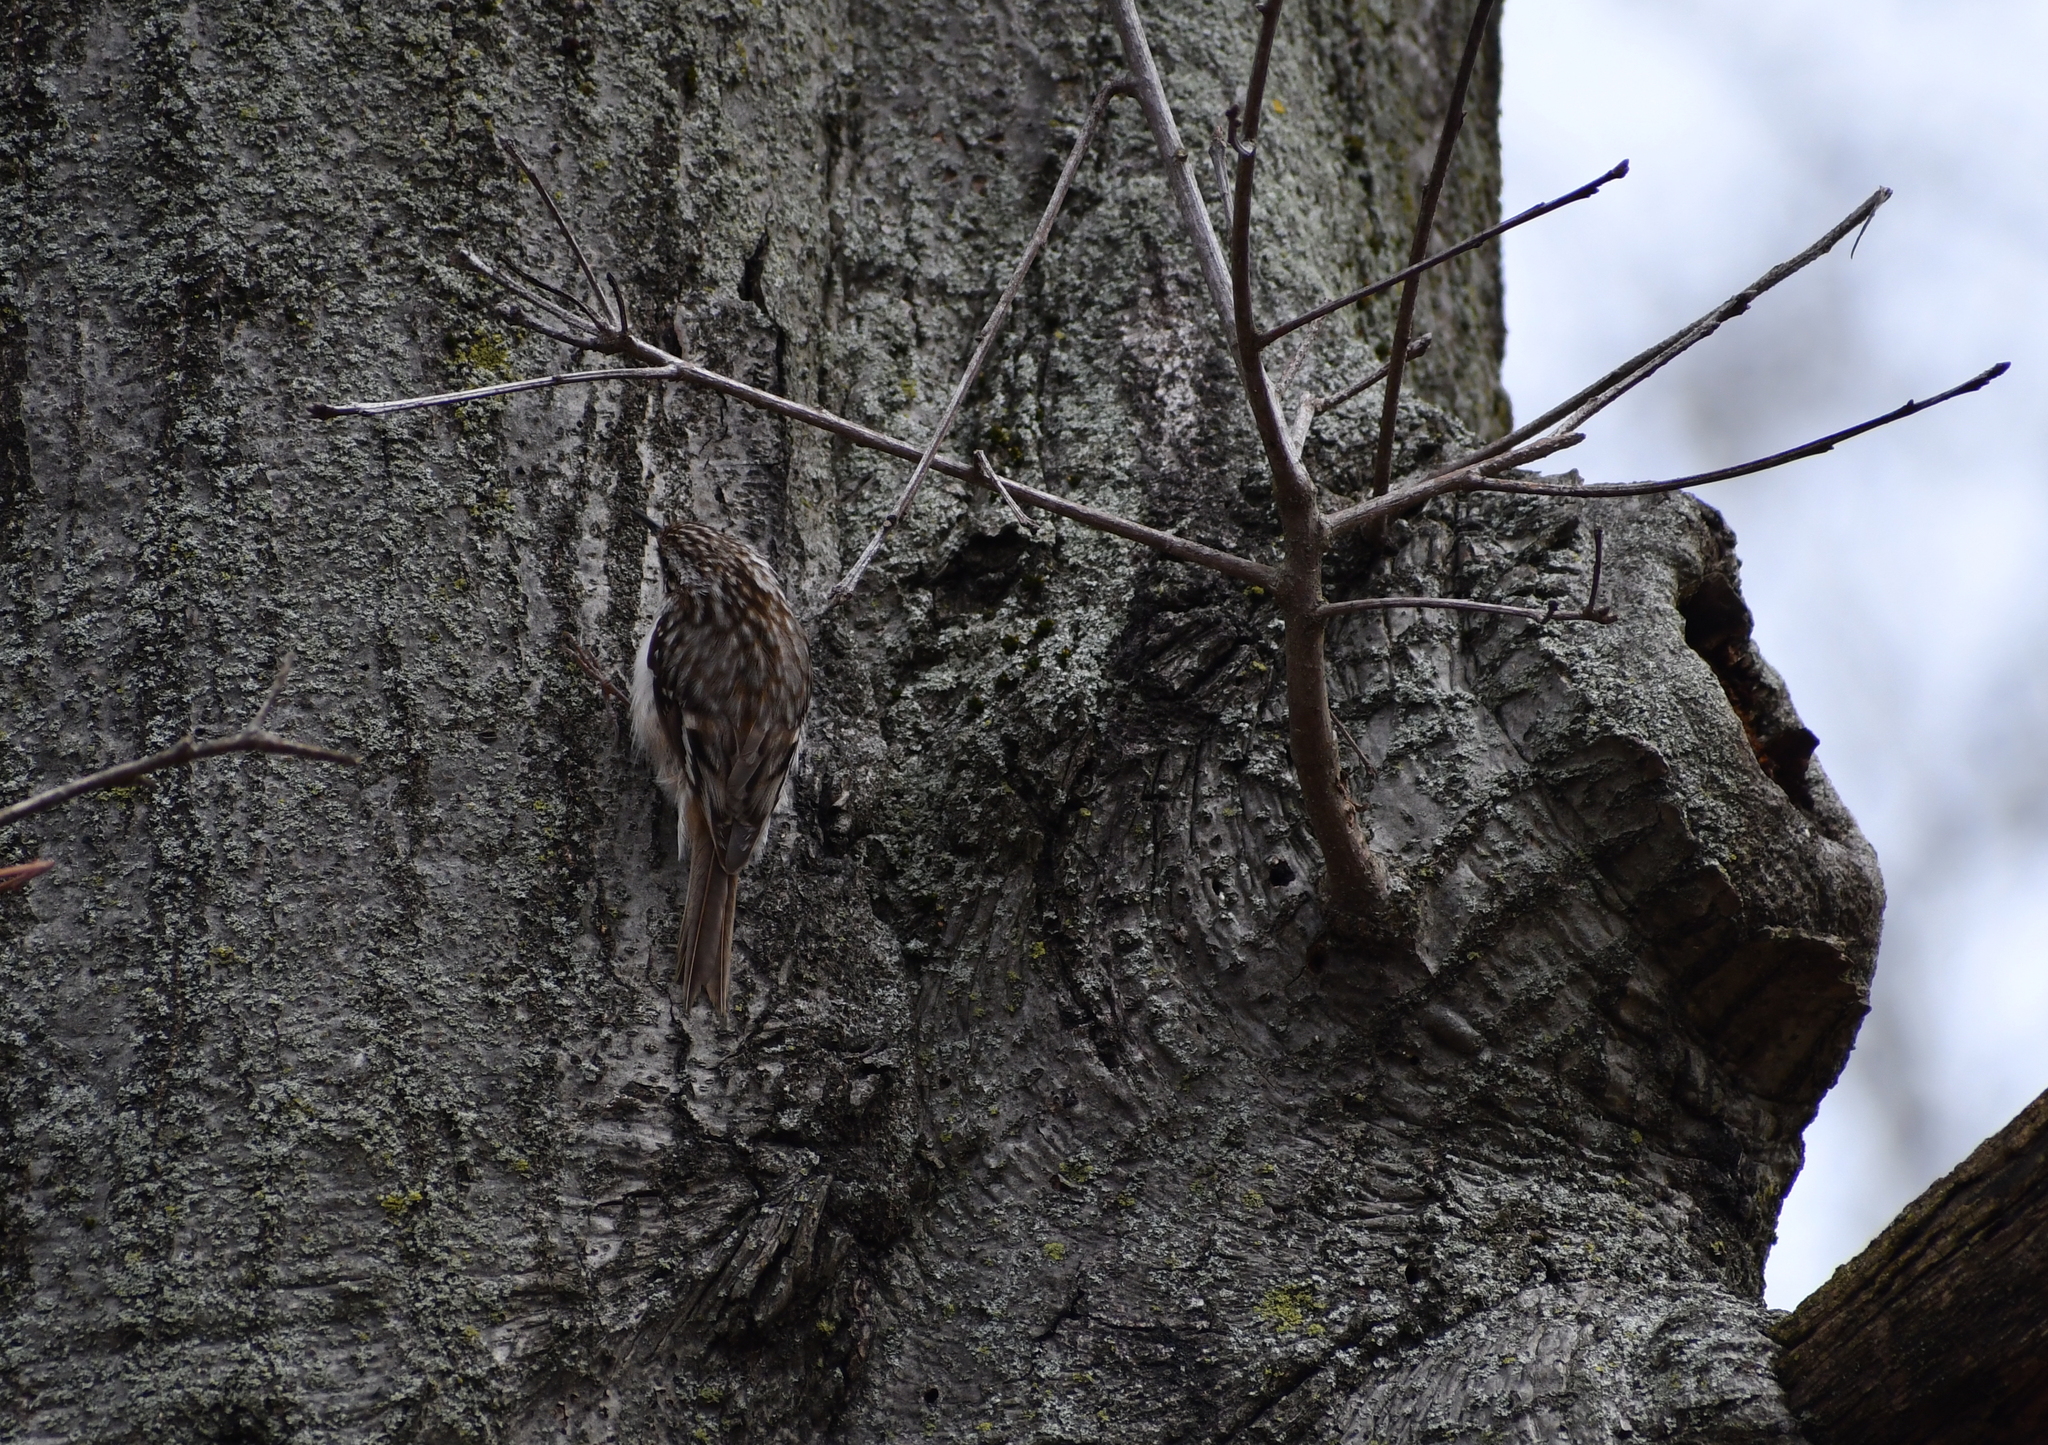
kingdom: Animalia
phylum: Chordata
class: Aves
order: Passeriformes
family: Certhiidae
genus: Certhia
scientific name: Certhia americana
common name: Brown creeper
